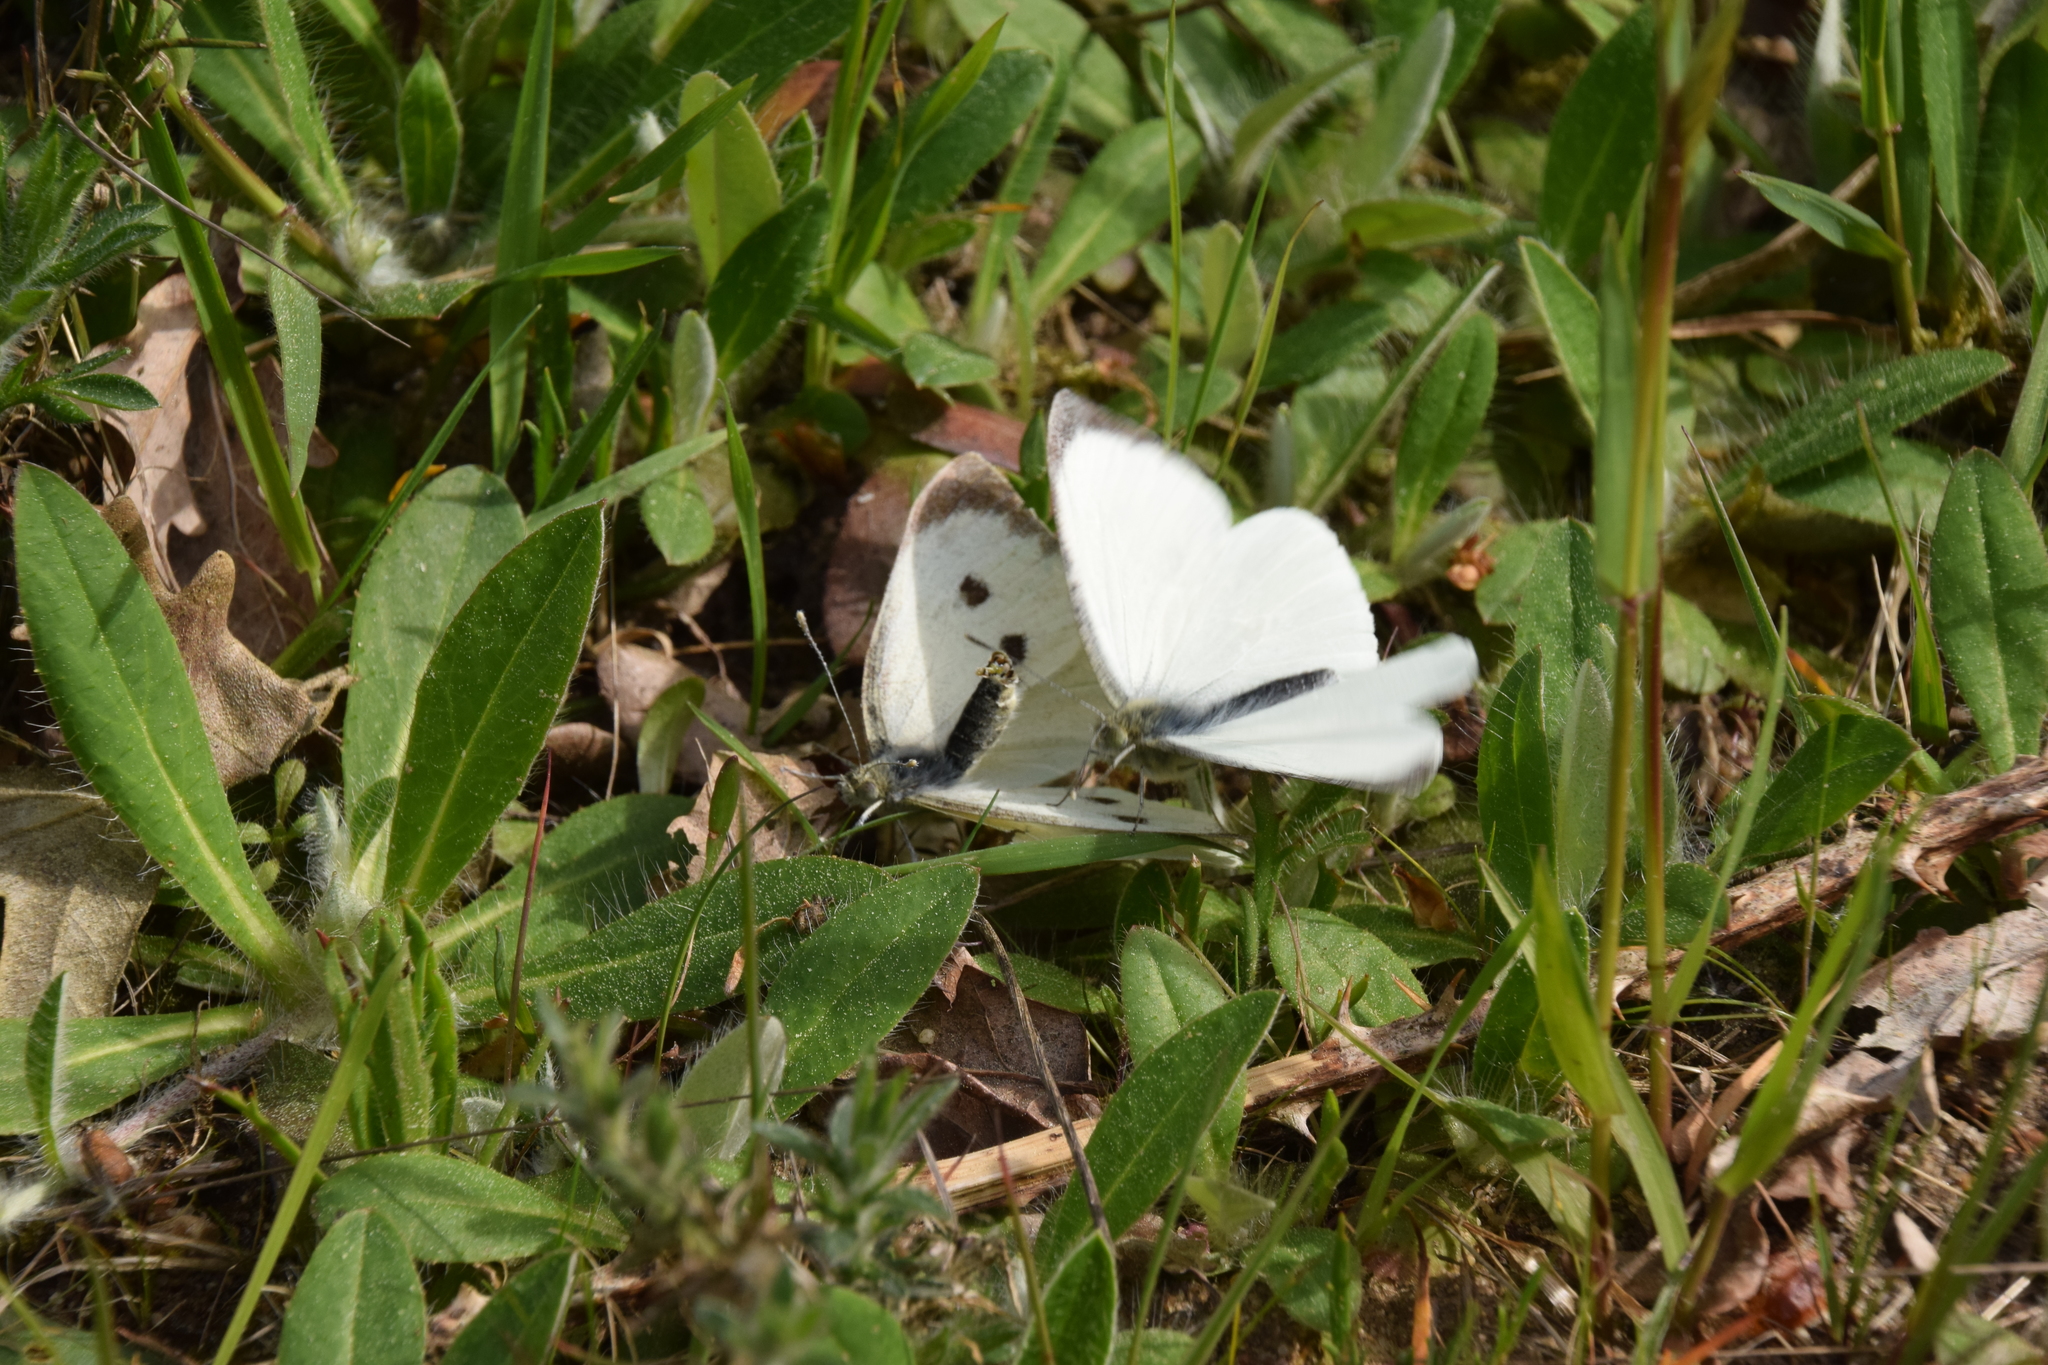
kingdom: Animalia
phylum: Arthropoda
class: Insecta
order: Lepidoptera
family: Pieridae
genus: Pieris
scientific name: Pieris brassicae
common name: Large white
